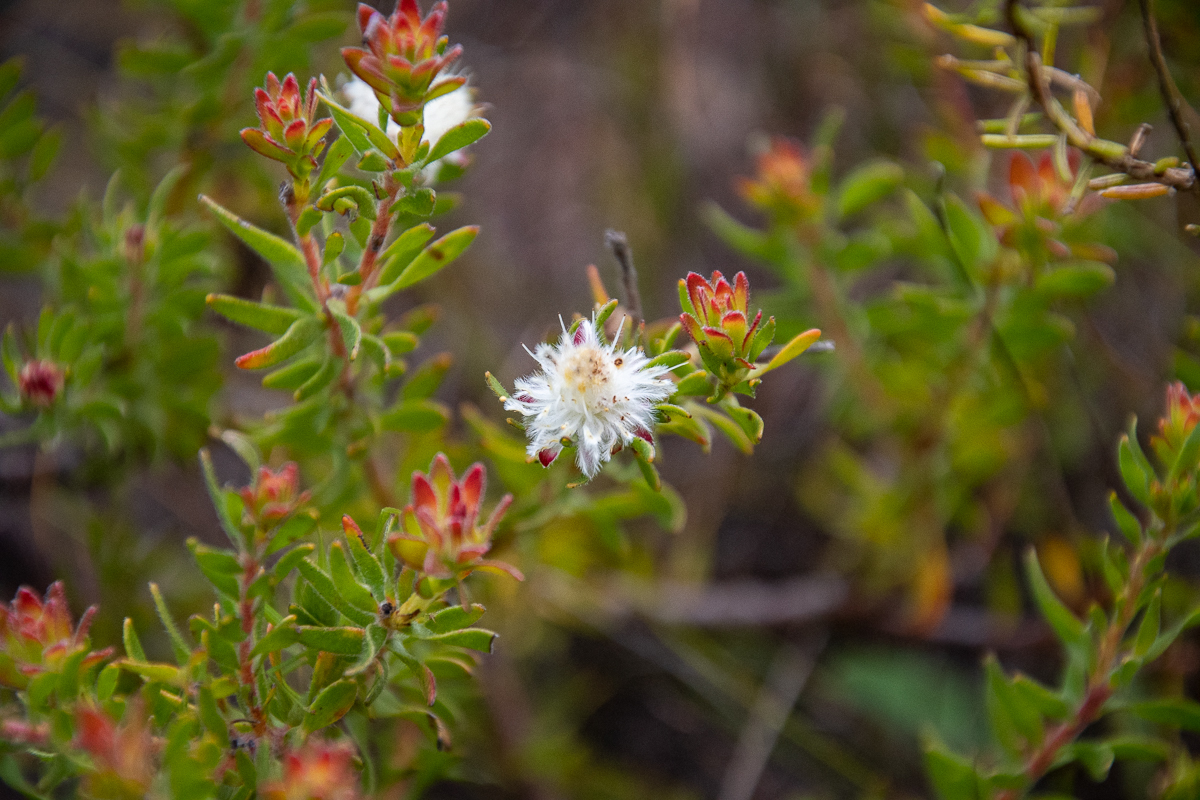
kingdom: Plantae
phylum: Tracheophyta
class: Magnoliopsida
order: Proteales
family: Proteaceae
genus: Diastella
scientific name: Diastella fraterna
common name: Palmiet silkypuff
